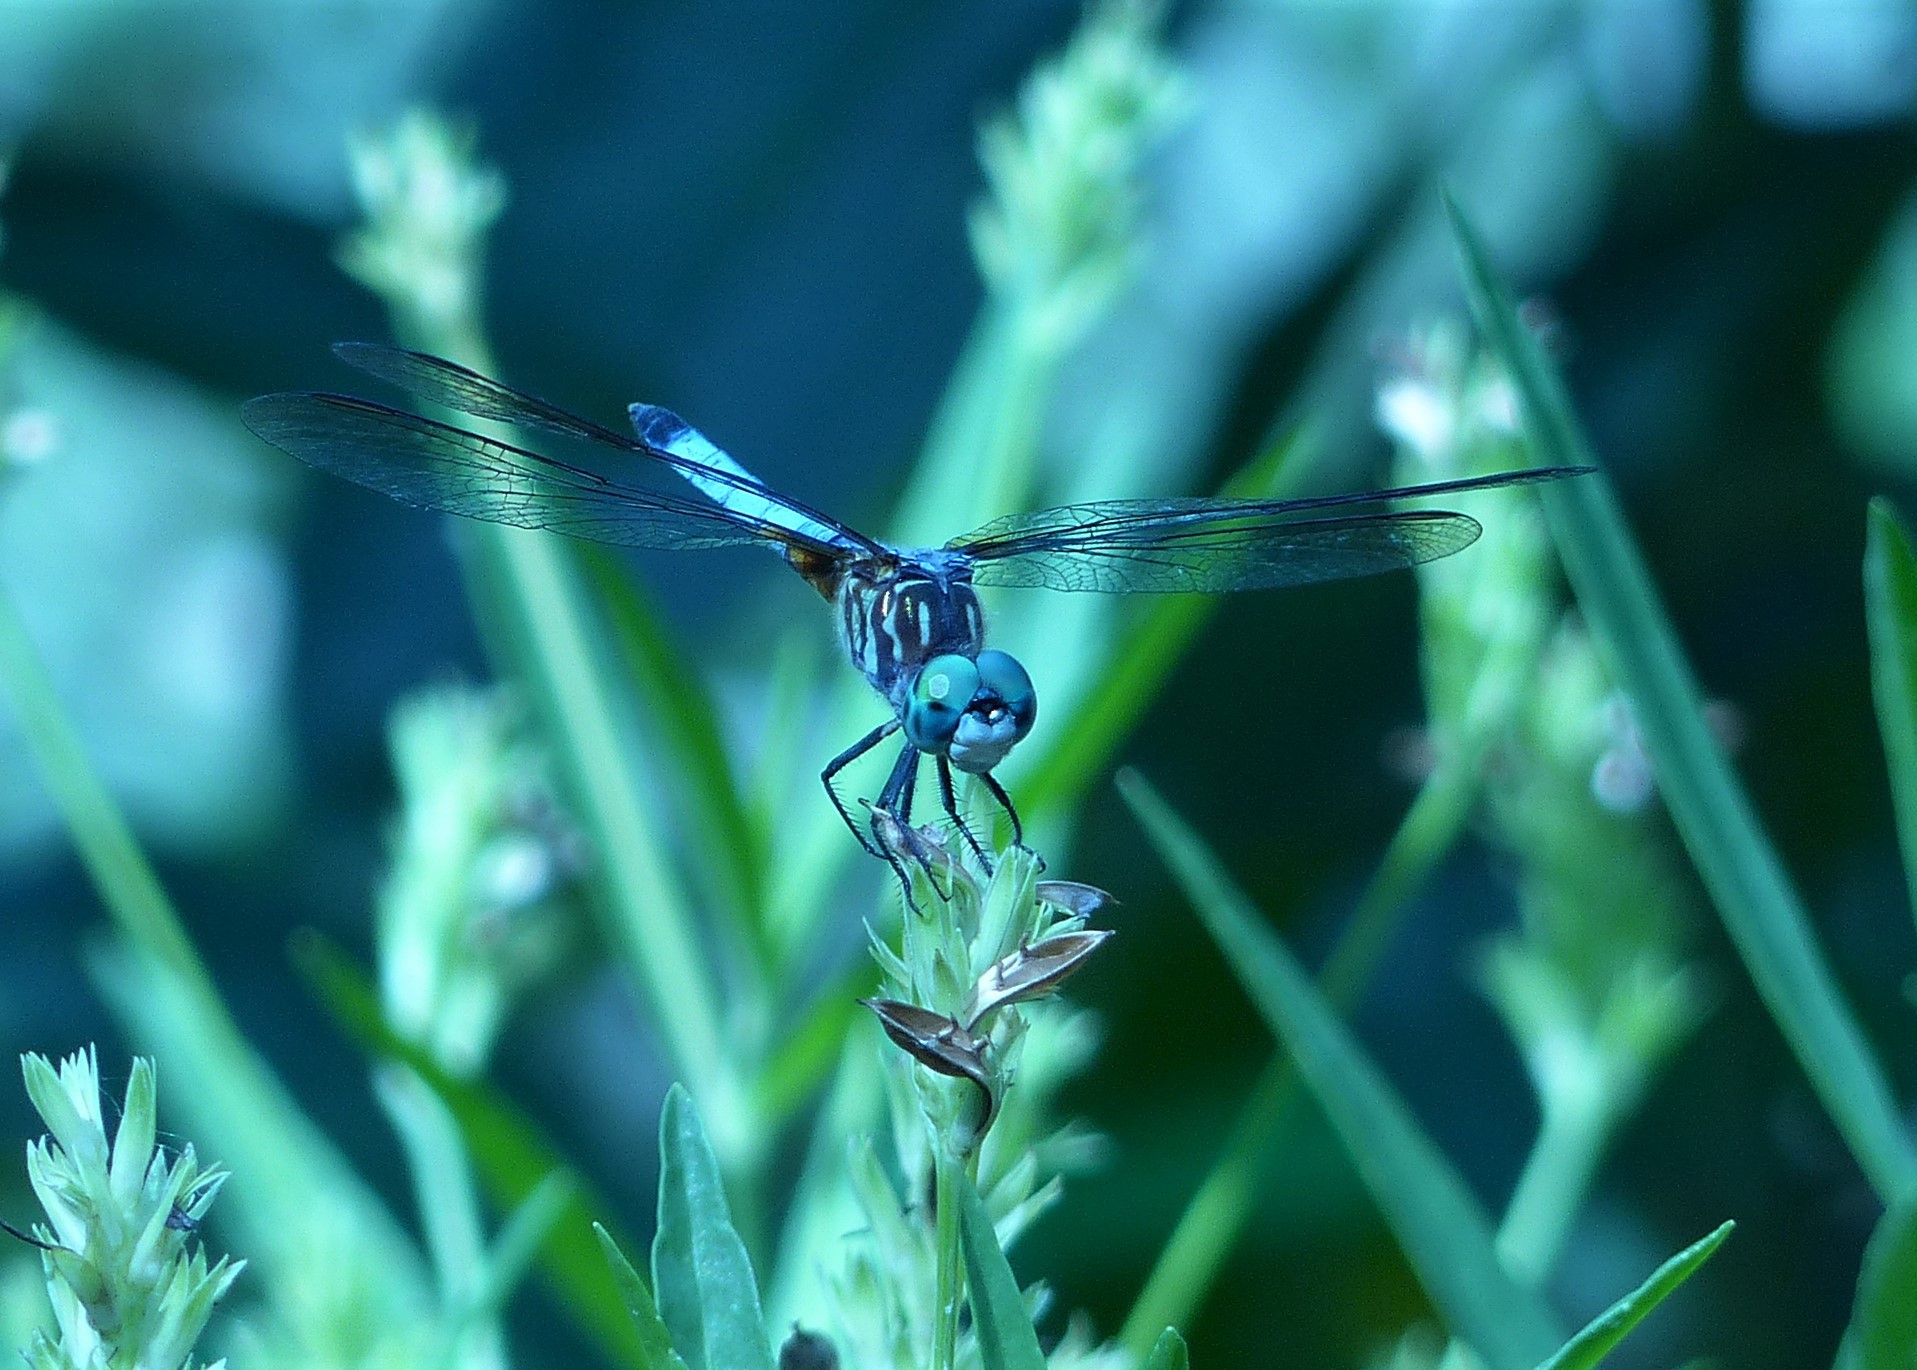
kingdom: Animalia
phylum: Arthropoda
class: Insecta
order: Odonata
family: Libellulidae
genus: Pachydiplax
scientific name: Pachydiplax longipennis
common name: Blue dasher
